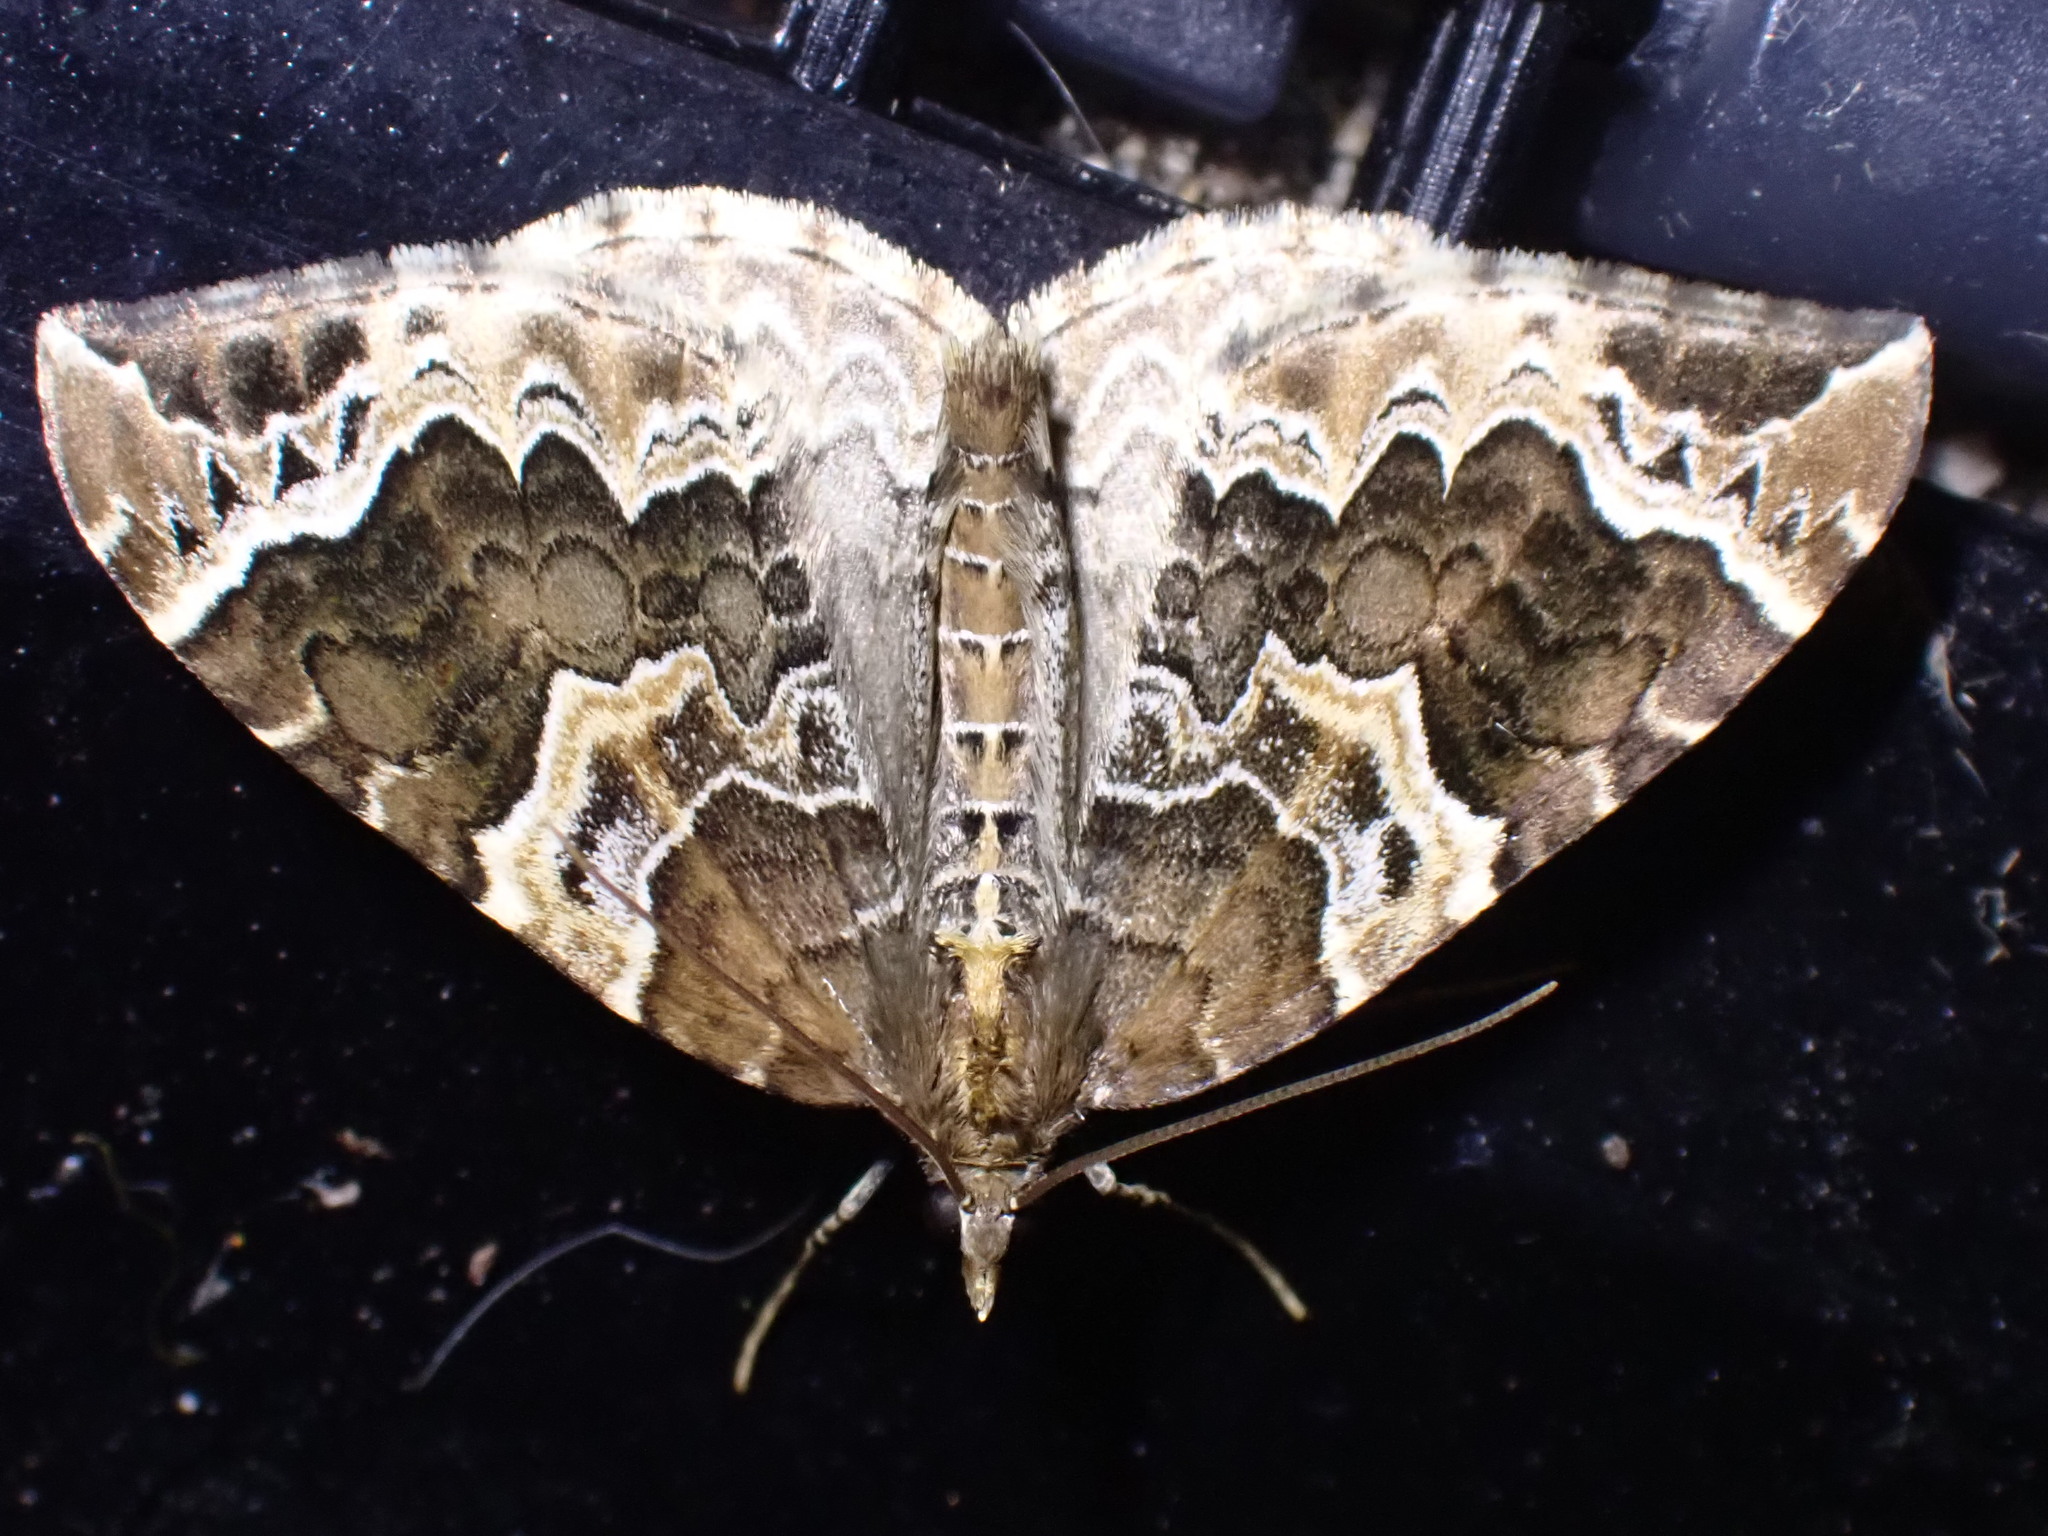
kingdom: Animalia
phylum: Arthropoda
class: Insecta
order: Lepidoptera
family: Geometridae
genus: Eulithis
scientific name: Eulithis prunata
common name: Phoenix
